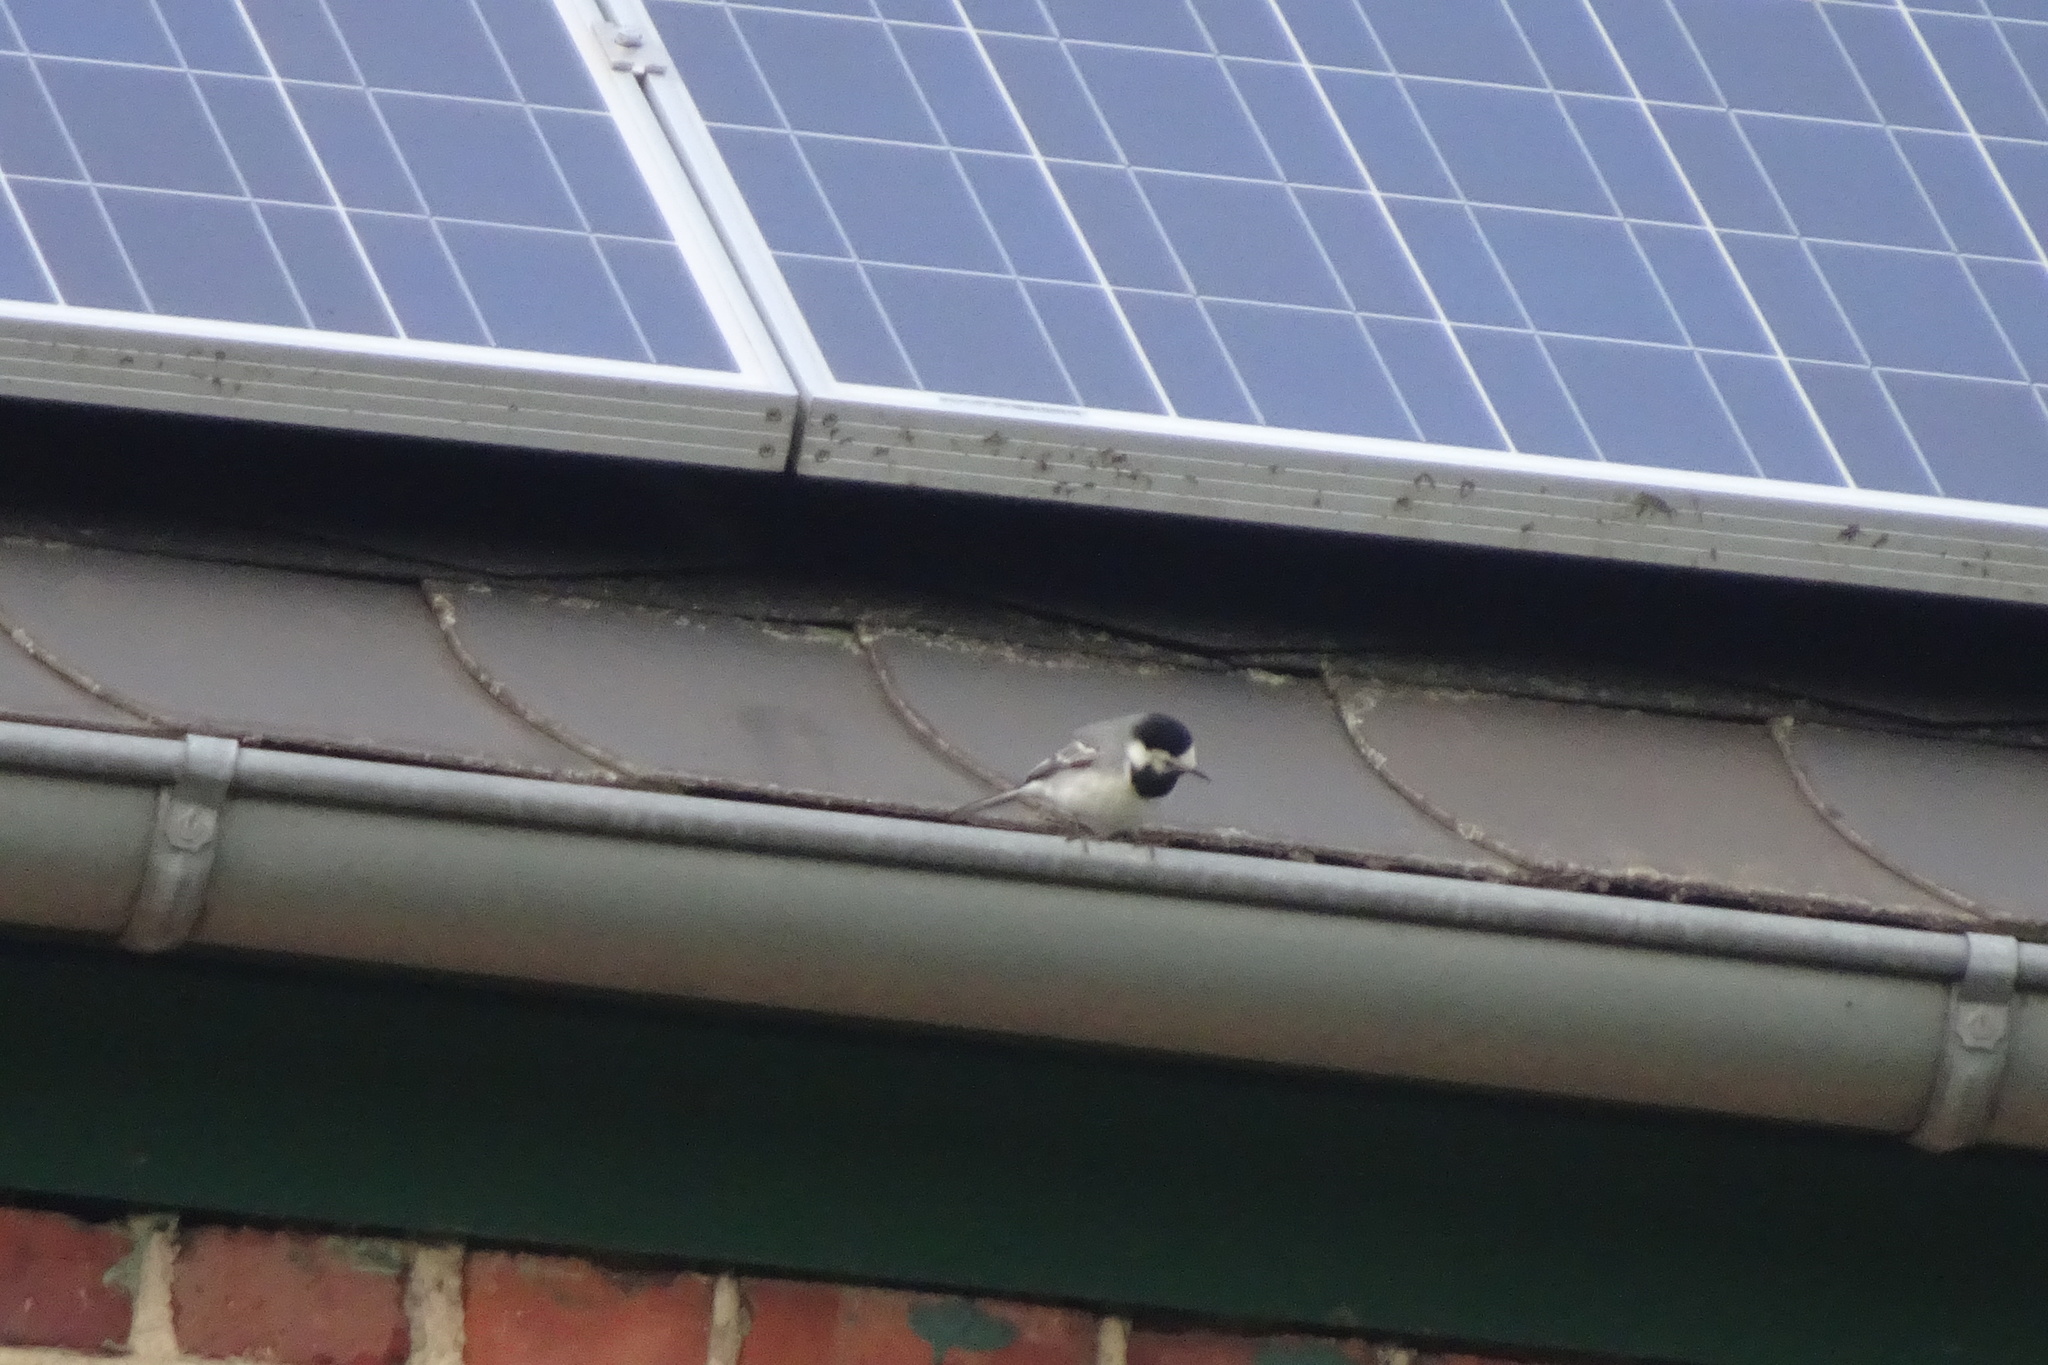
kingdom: Animalia
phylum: Chordata
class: Aves
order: Passeriformes
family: Motacillidae
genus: Motacilla
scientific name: Motacilla alba
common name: White wagtail
